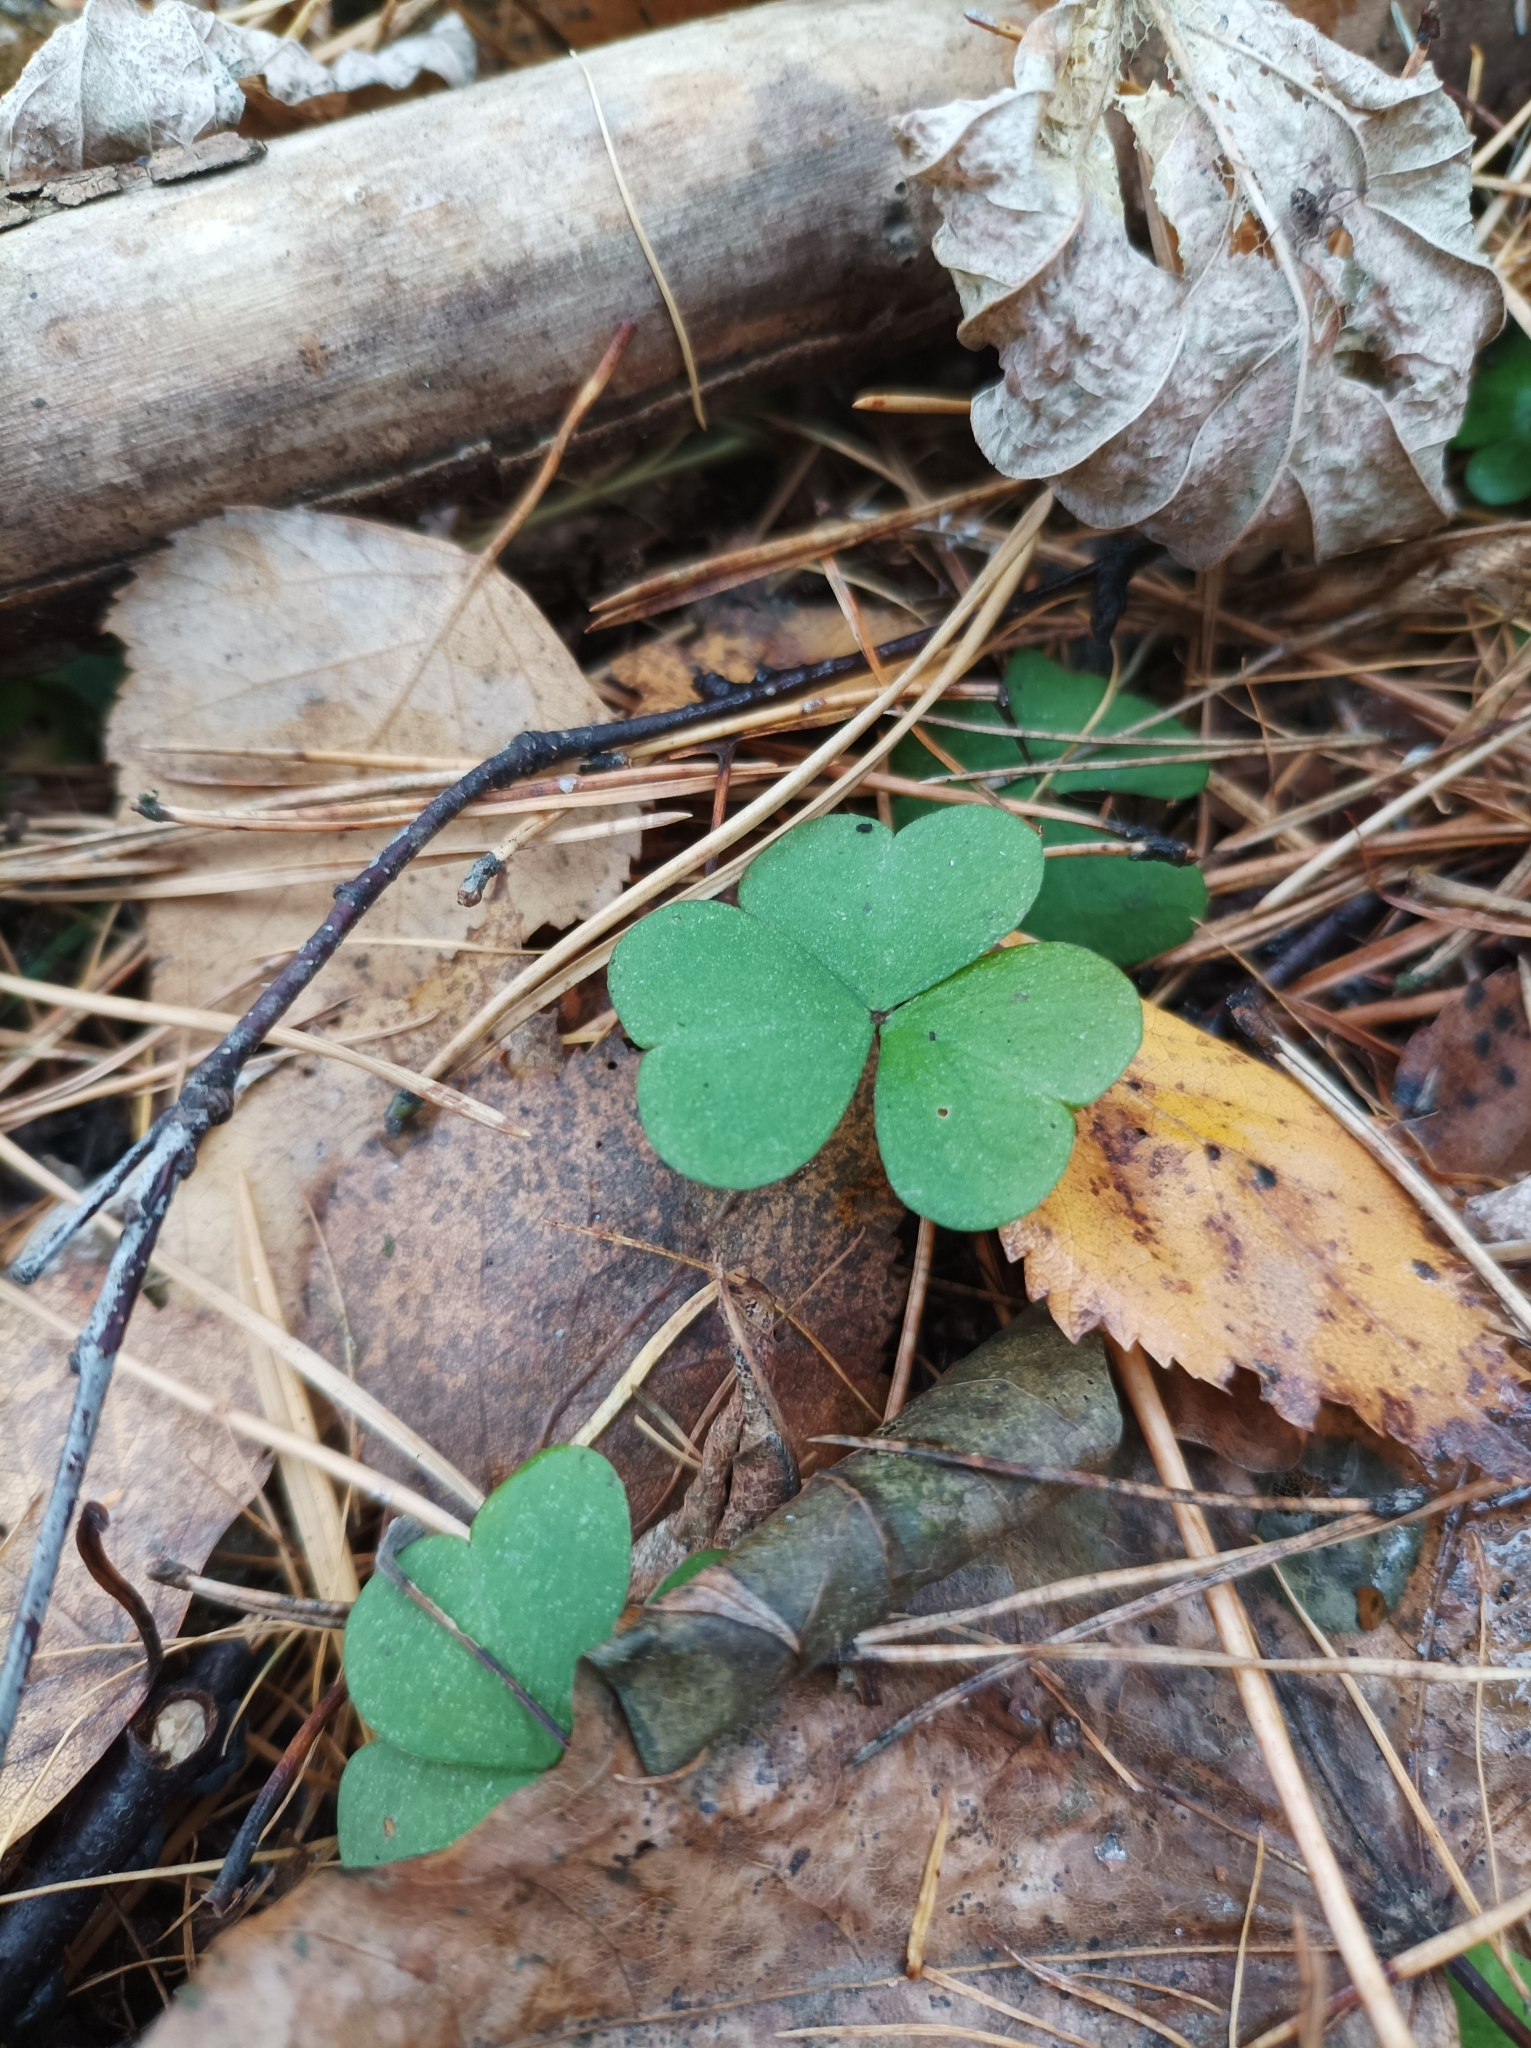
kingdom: Plantae
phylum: Tracheophyta
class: Magnoliopsida
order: Oxalidales
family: Oxalidaceae
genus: Oxalis
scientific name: Oxalis acetosella
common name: Wood-sorrel
